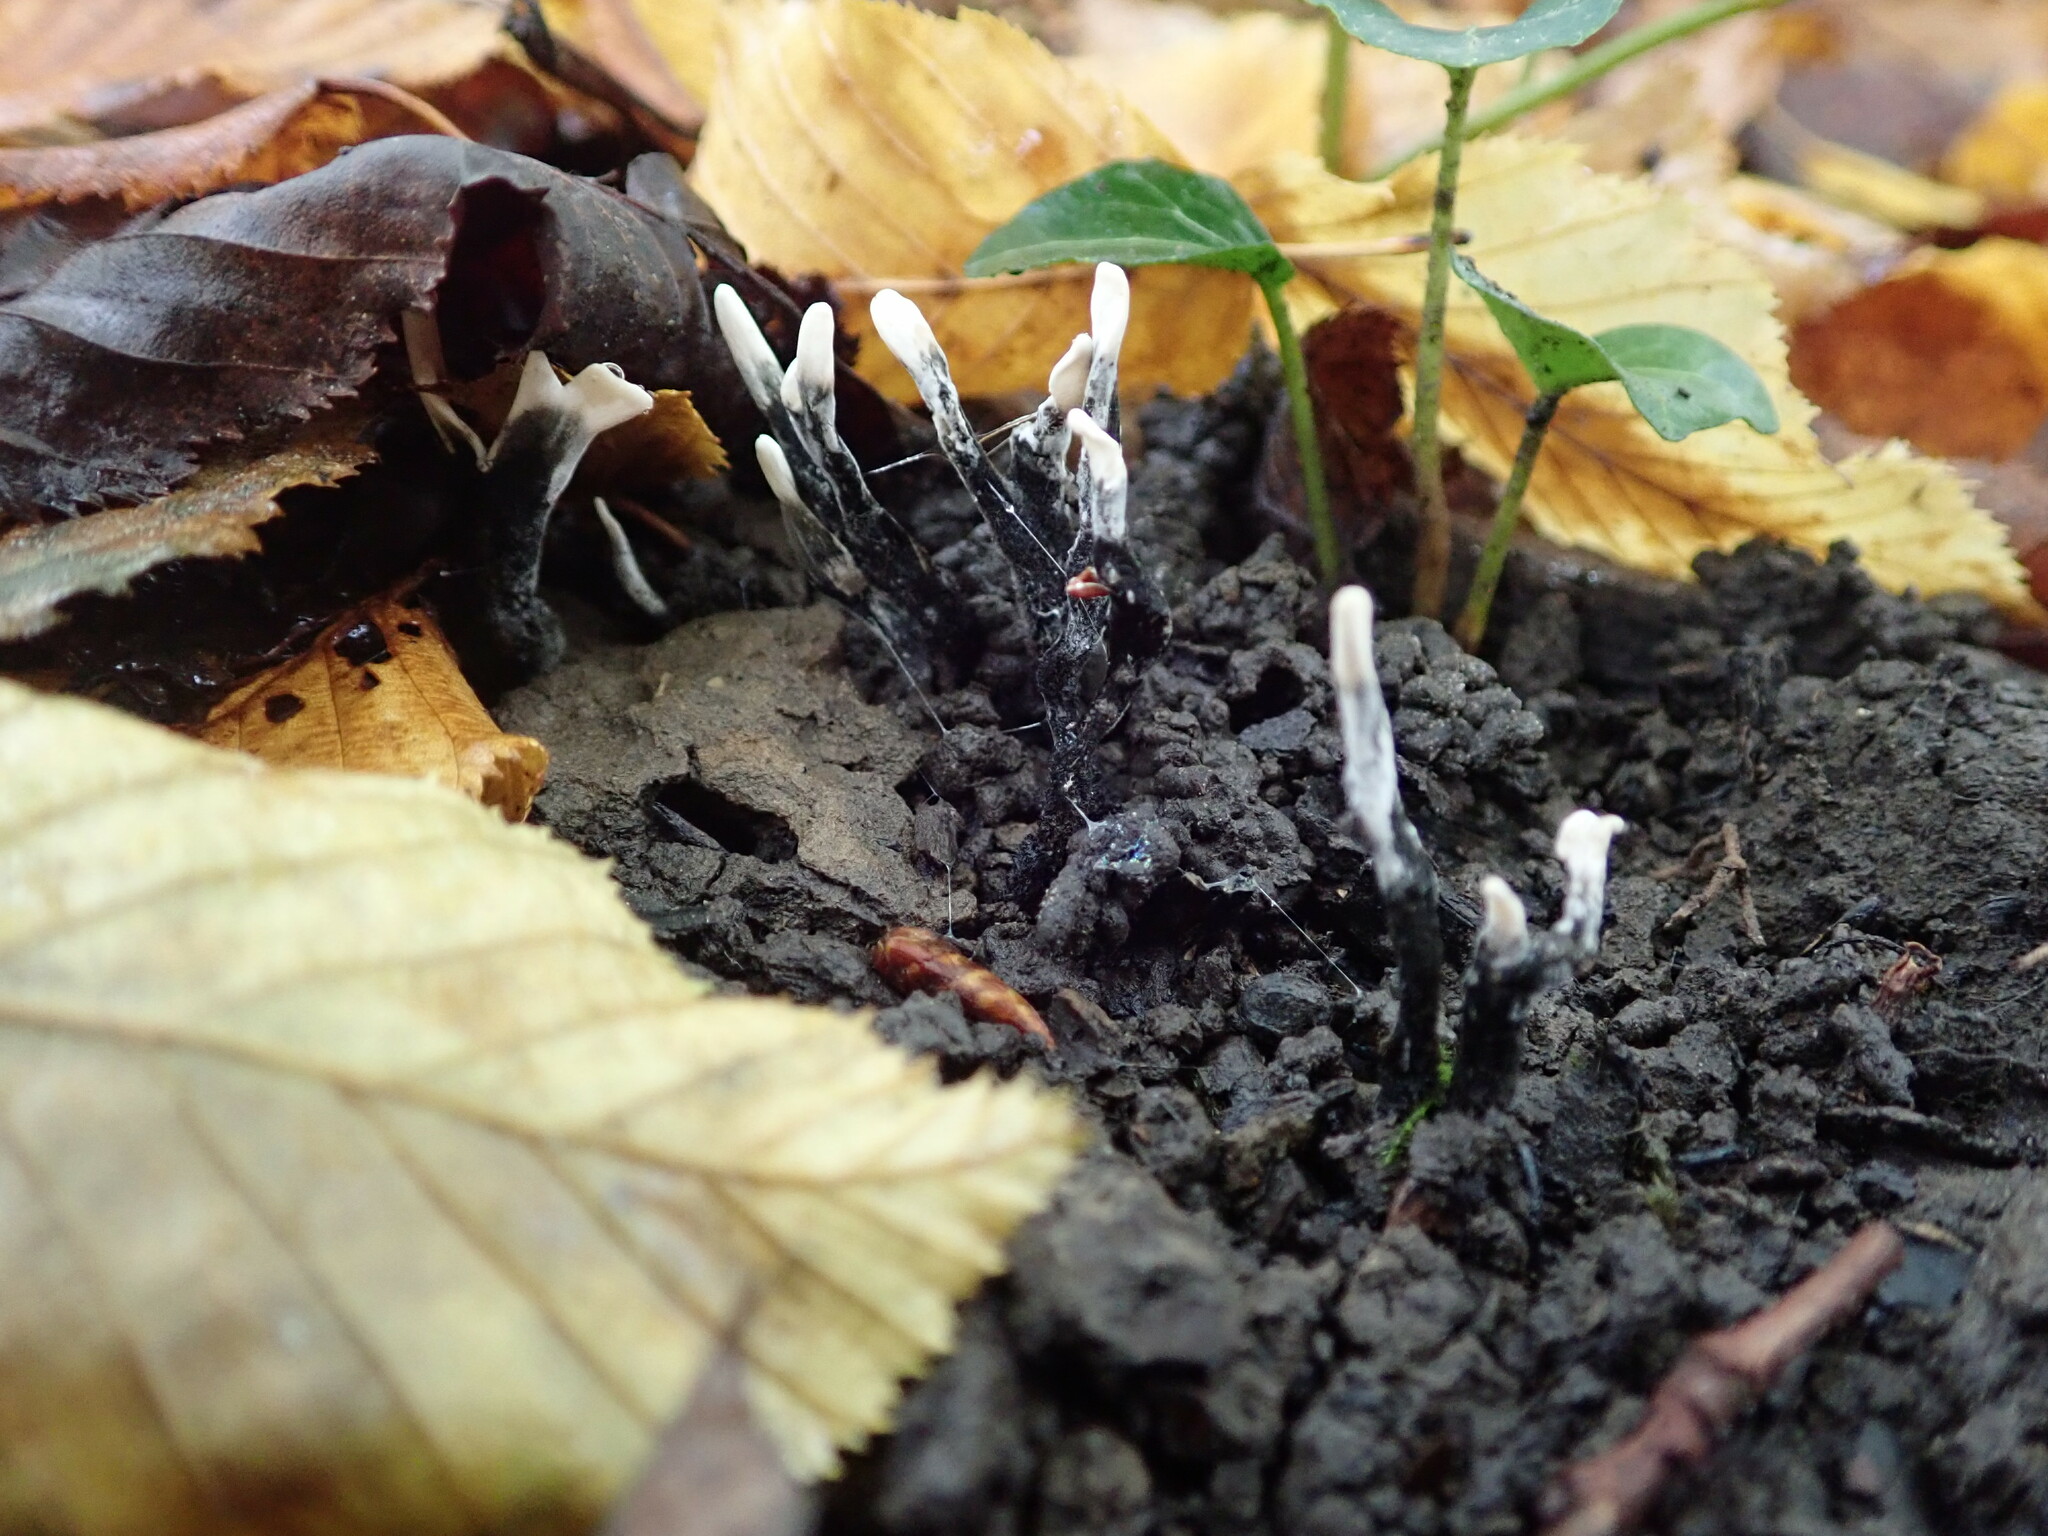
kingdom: Fungi
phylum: Ascomycota
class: Sordariomycetes
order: Xylariales
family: Xylariaceae
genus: Xylaria
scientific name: Xylaria hypoxylon
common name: Candle-snuff fungus
